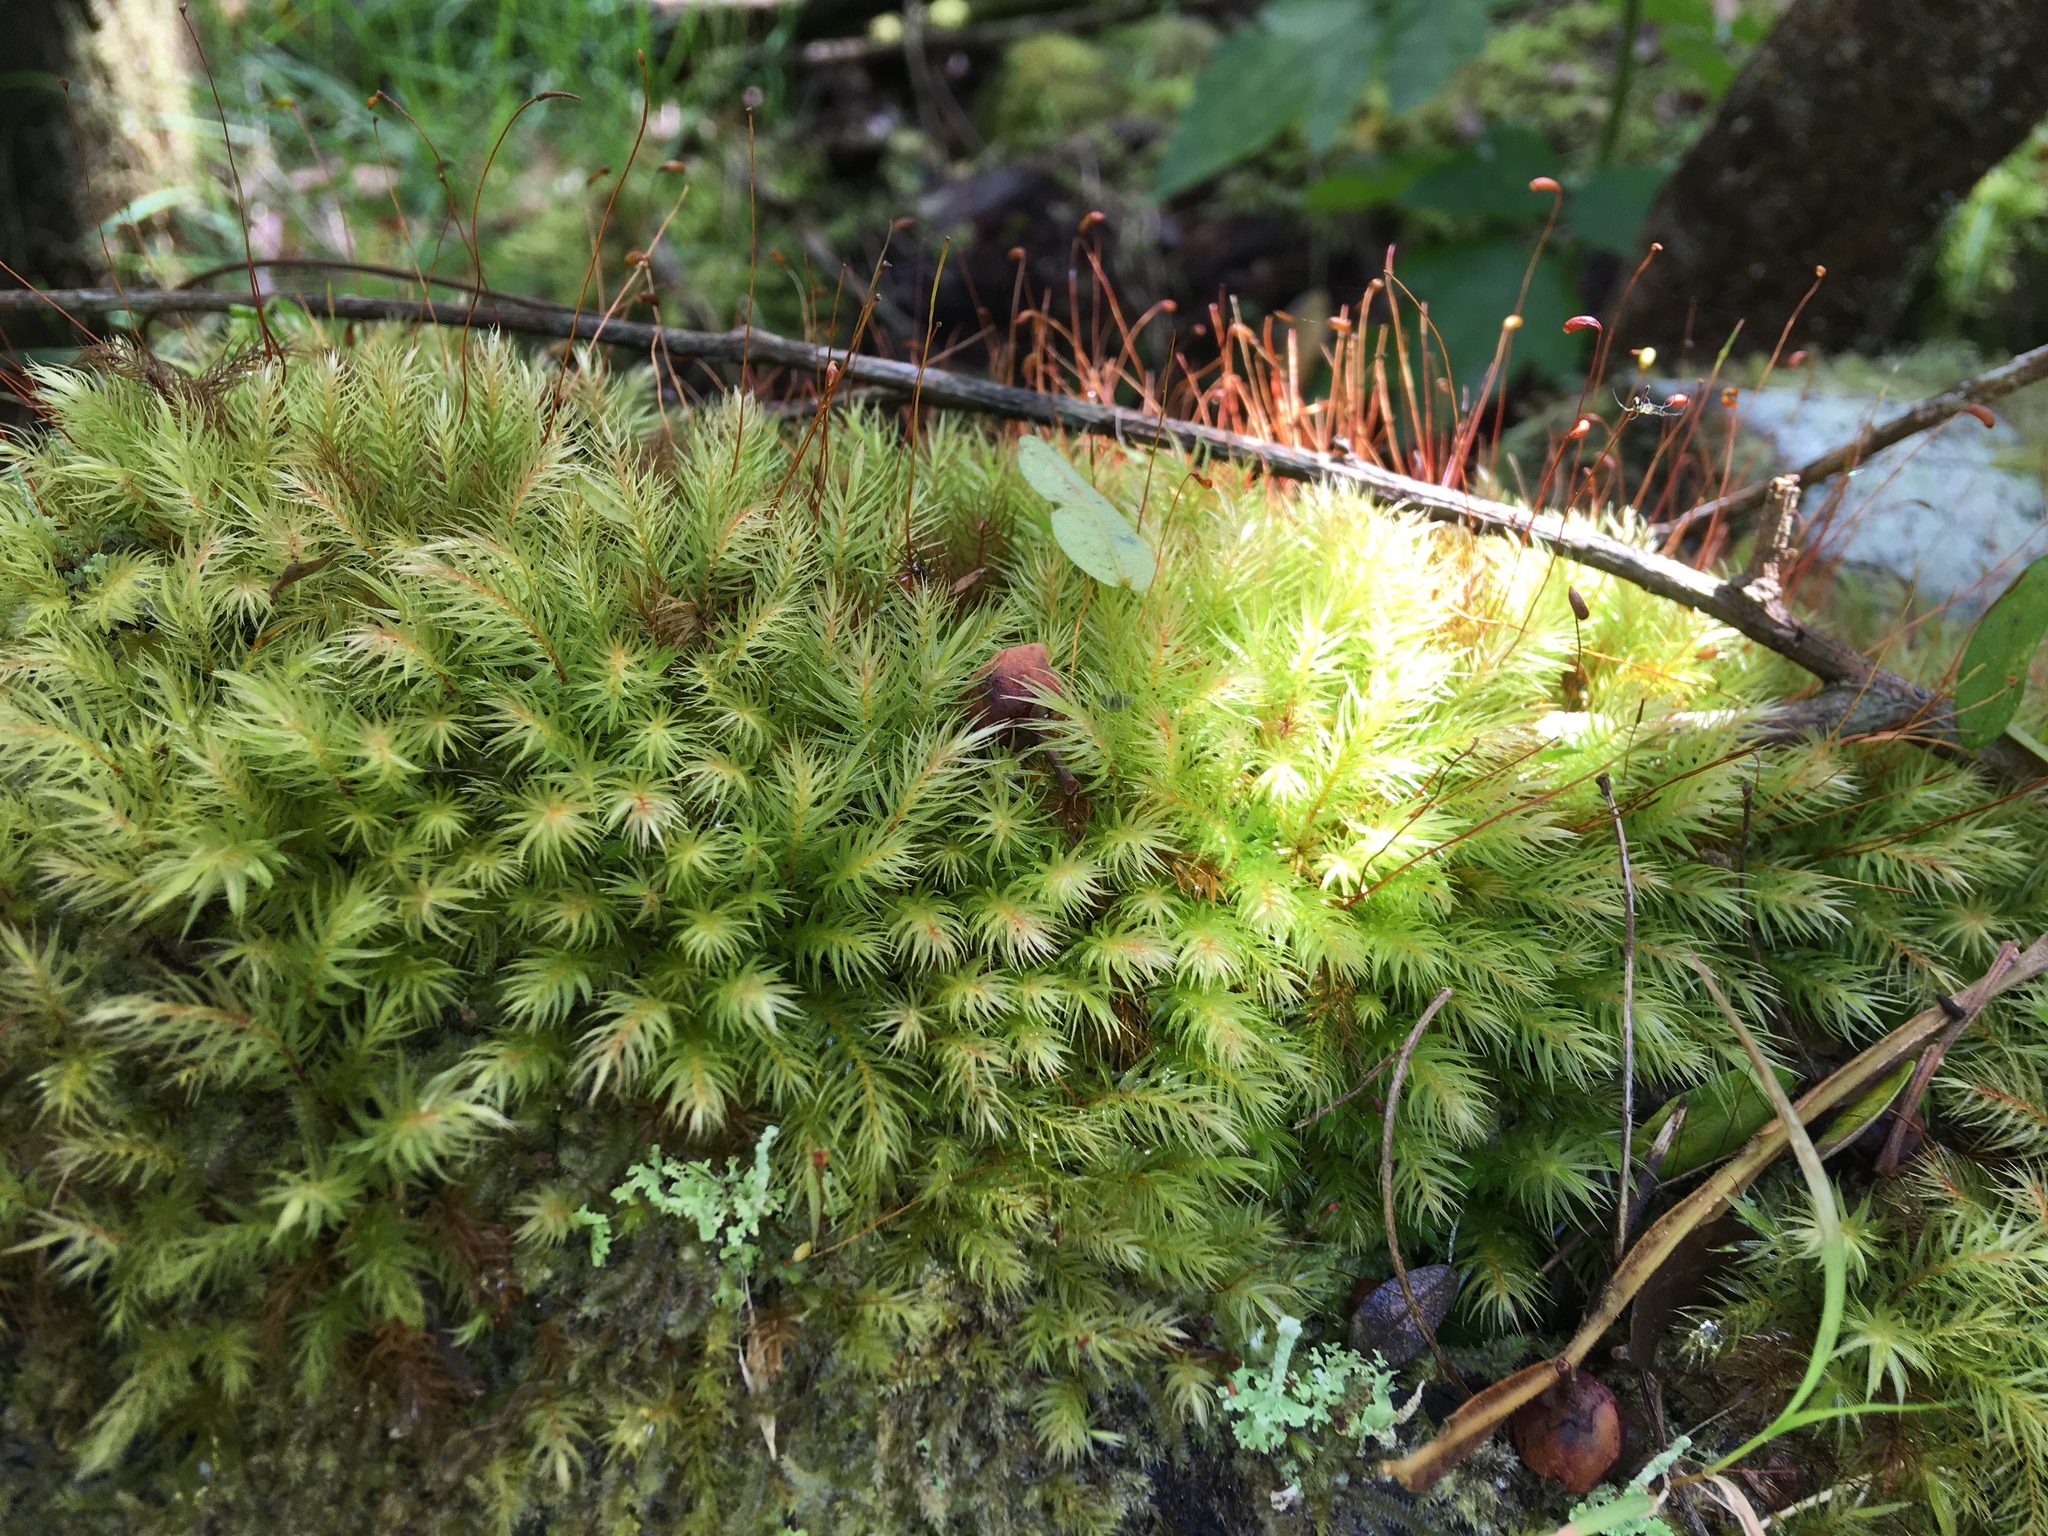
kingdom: Plantae
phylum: Bryophyta
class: Bryopsida
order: Rhizogoniales
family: Calomniaceae
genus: Pyrrhobryum
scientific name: Pyrrhobryum spiniforme
